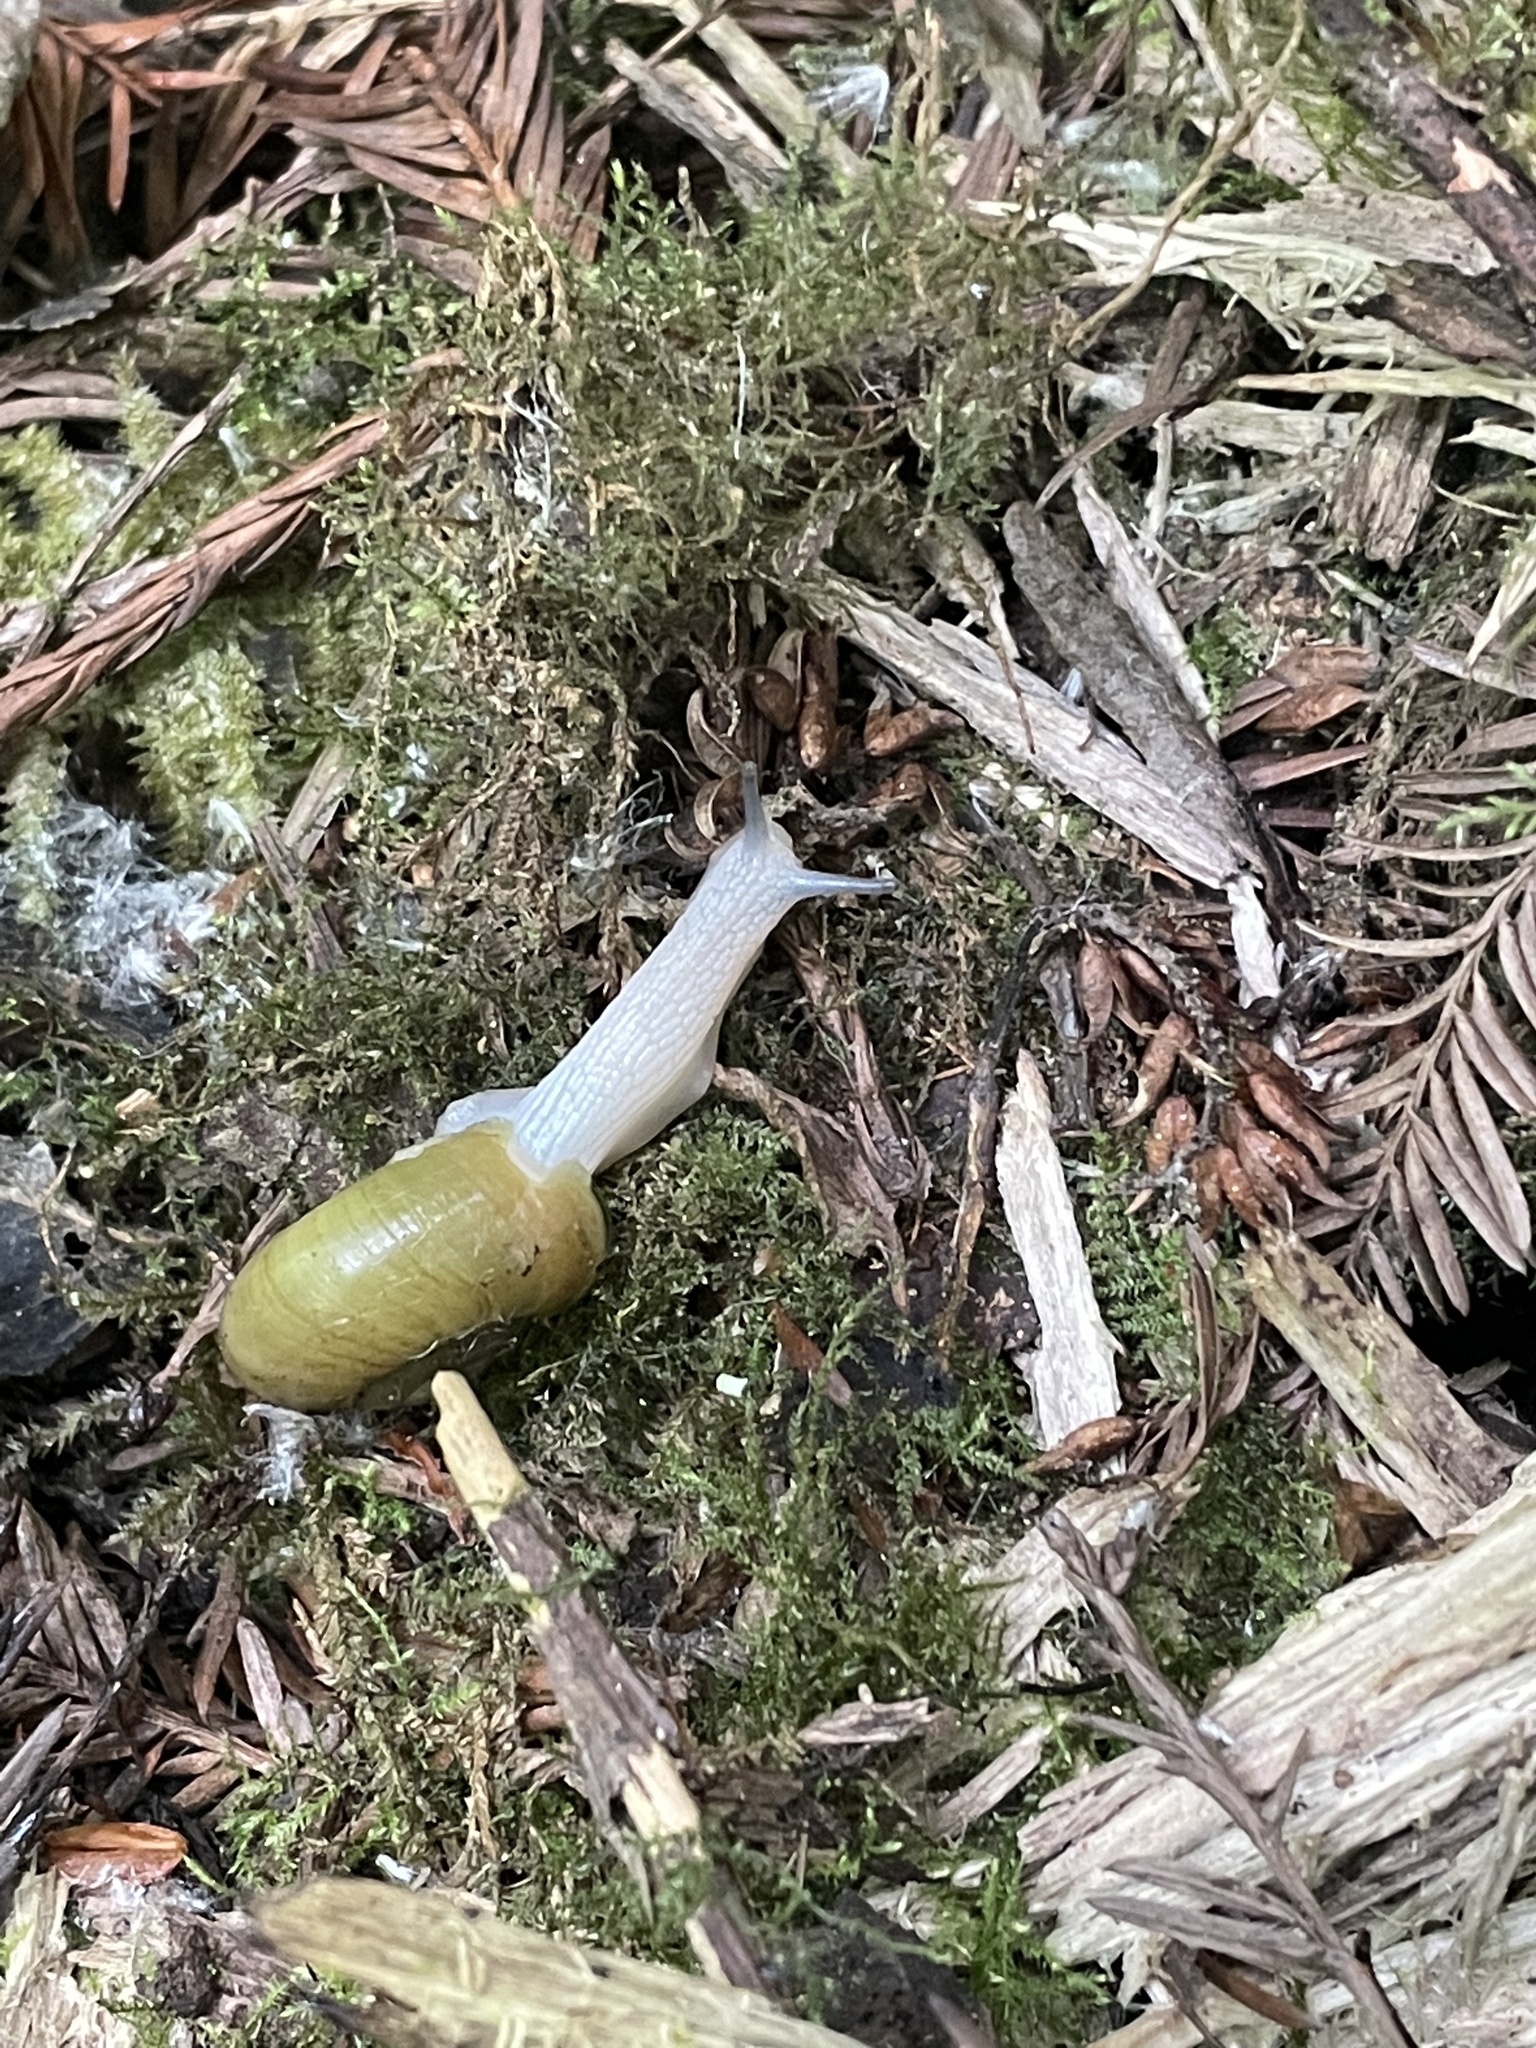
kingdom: Animalia
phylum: Mollusca
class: Gastropoda
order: Stylommatophora
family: Haplotrematidae
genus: Haplotrema
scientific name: Haplotrema minimum
